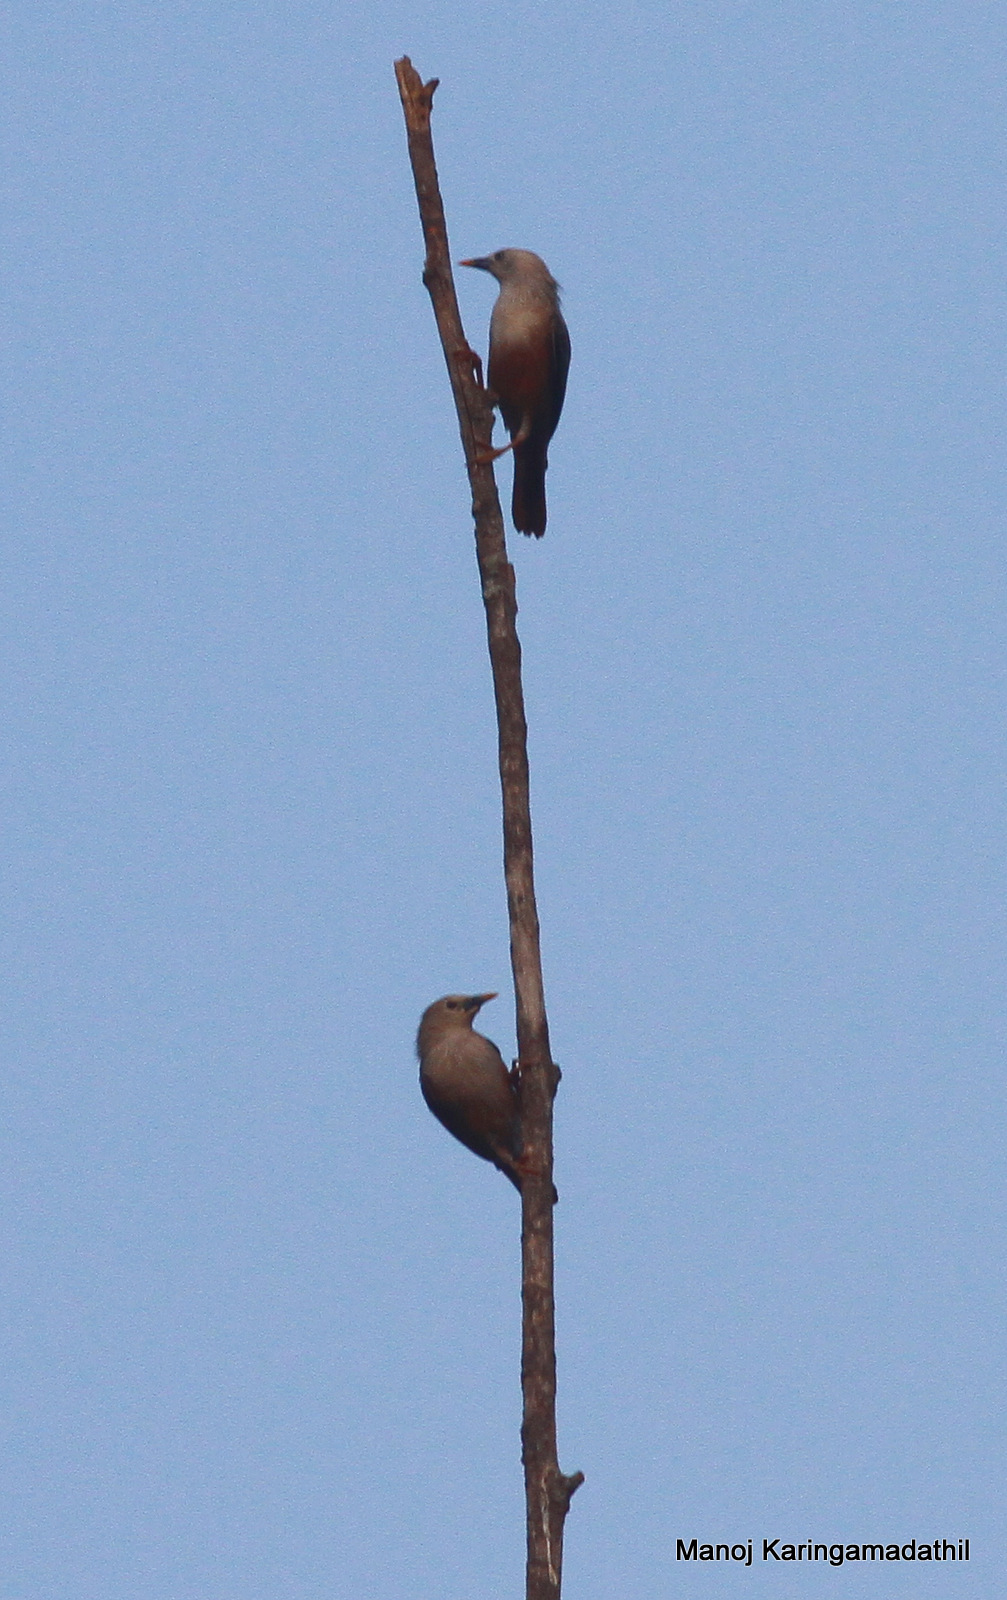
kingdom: Animalia
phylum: Chordata
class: Aves
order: Passeriformes
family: Sturnidae
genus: Sturnia
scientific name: Sturnia malabarica
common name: Chestnut-tailed starling
